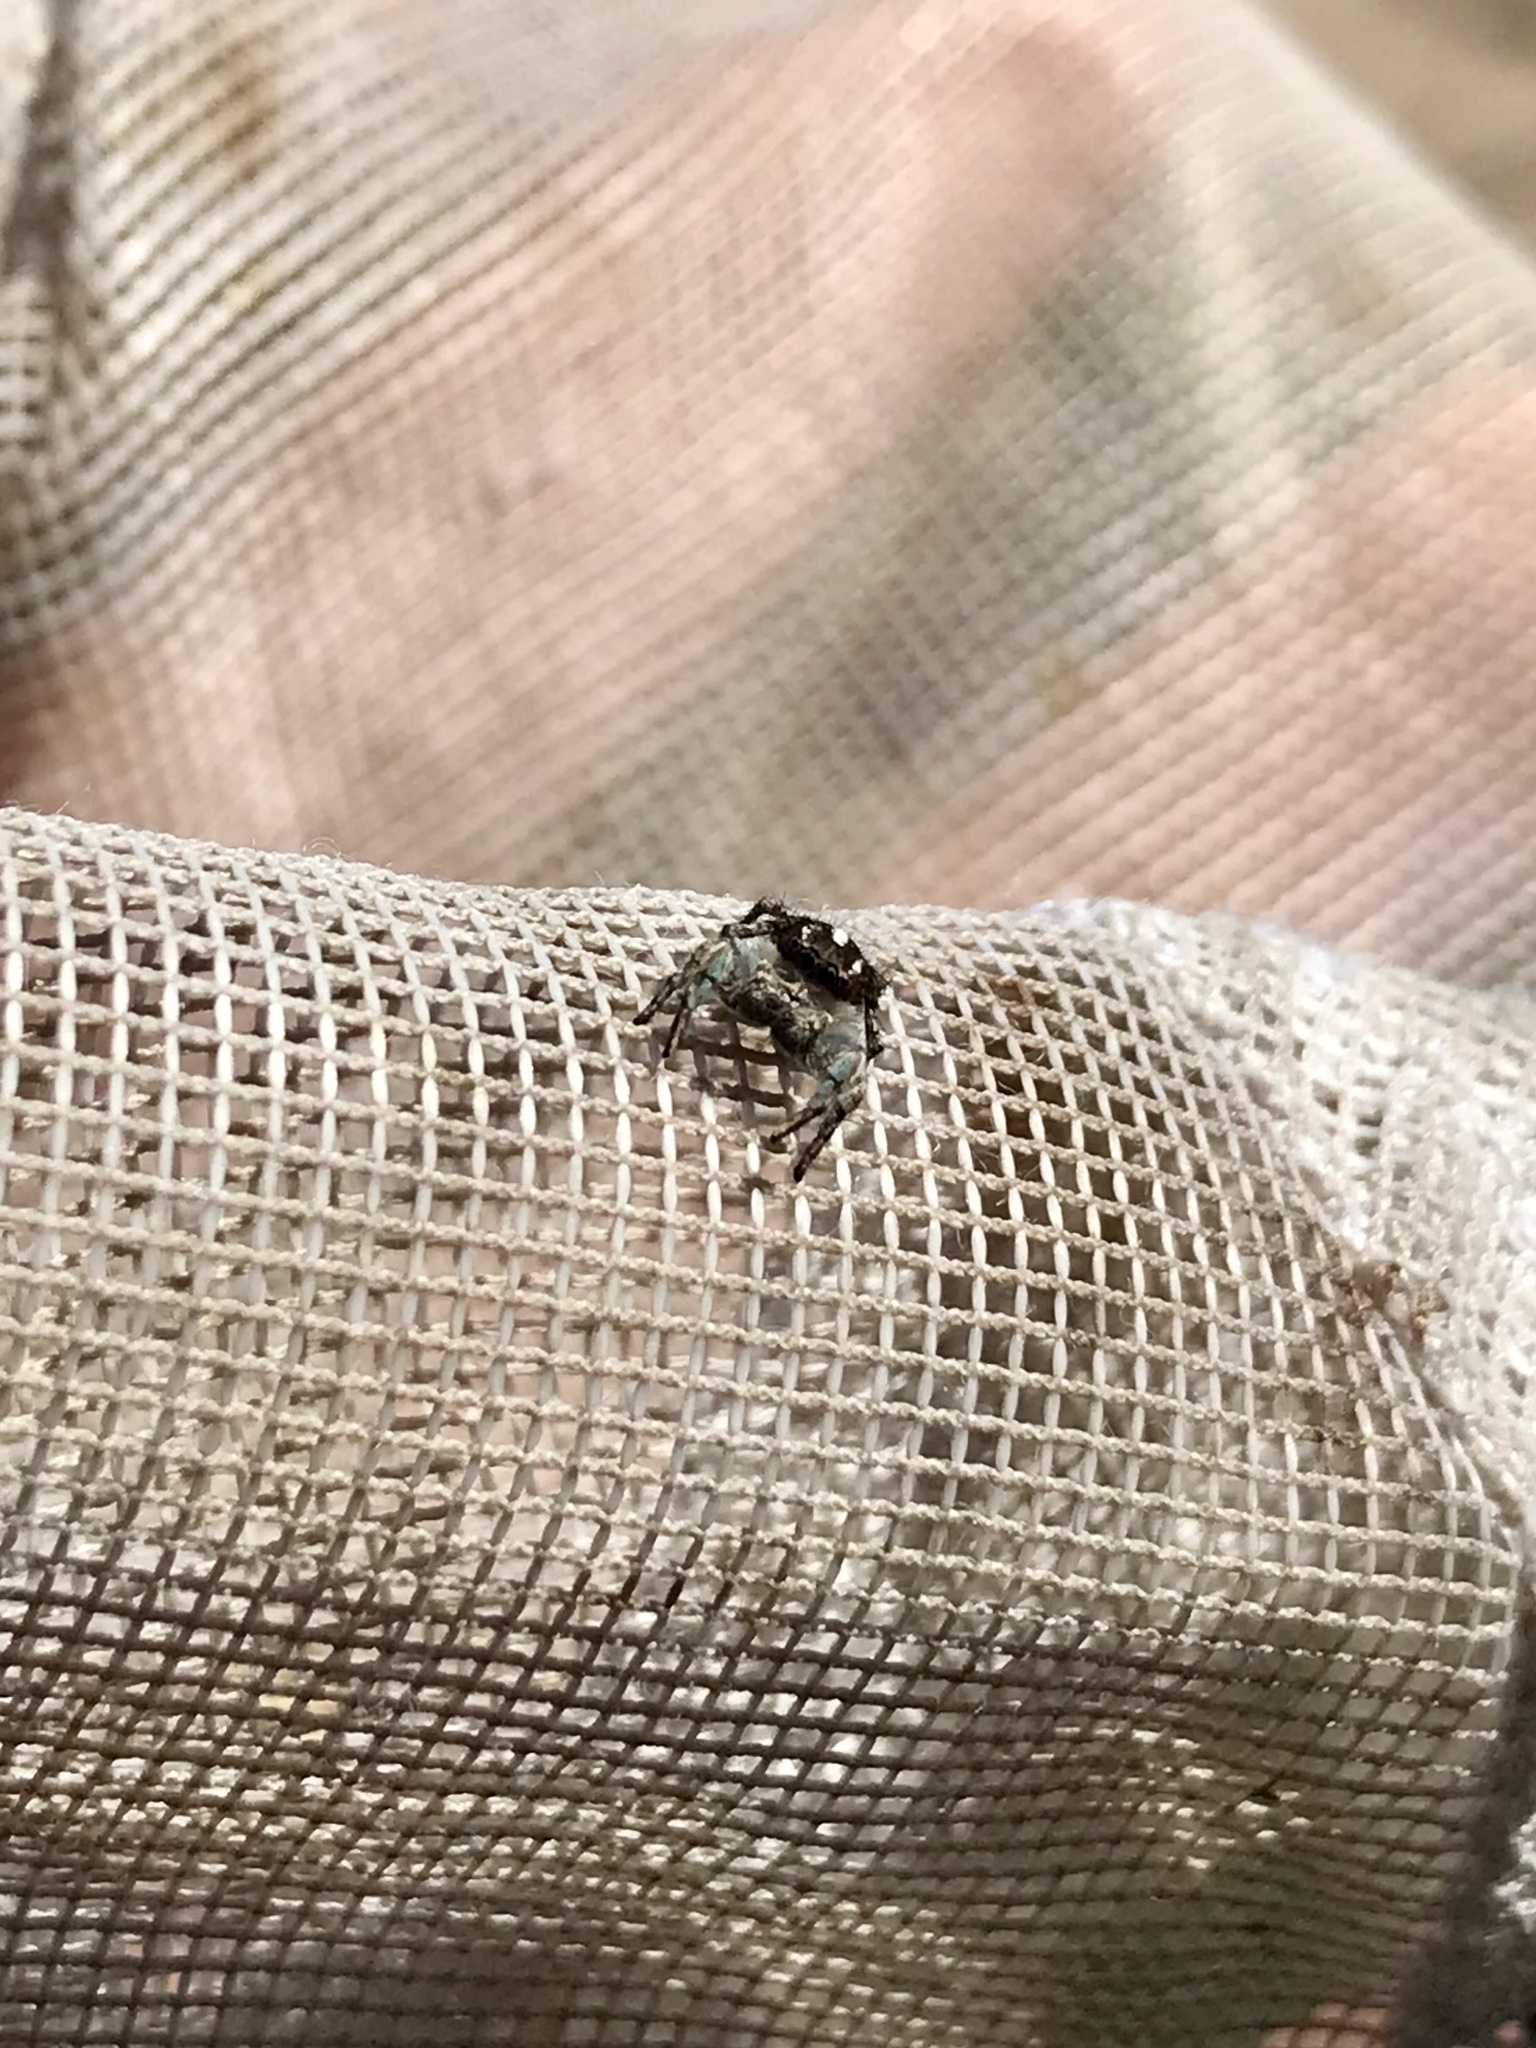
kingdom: Animalia
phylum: Arthropoda
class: Arachnida
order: Araneae
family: Salticidae
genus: Habronattus
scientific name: Habronattus cognatus
